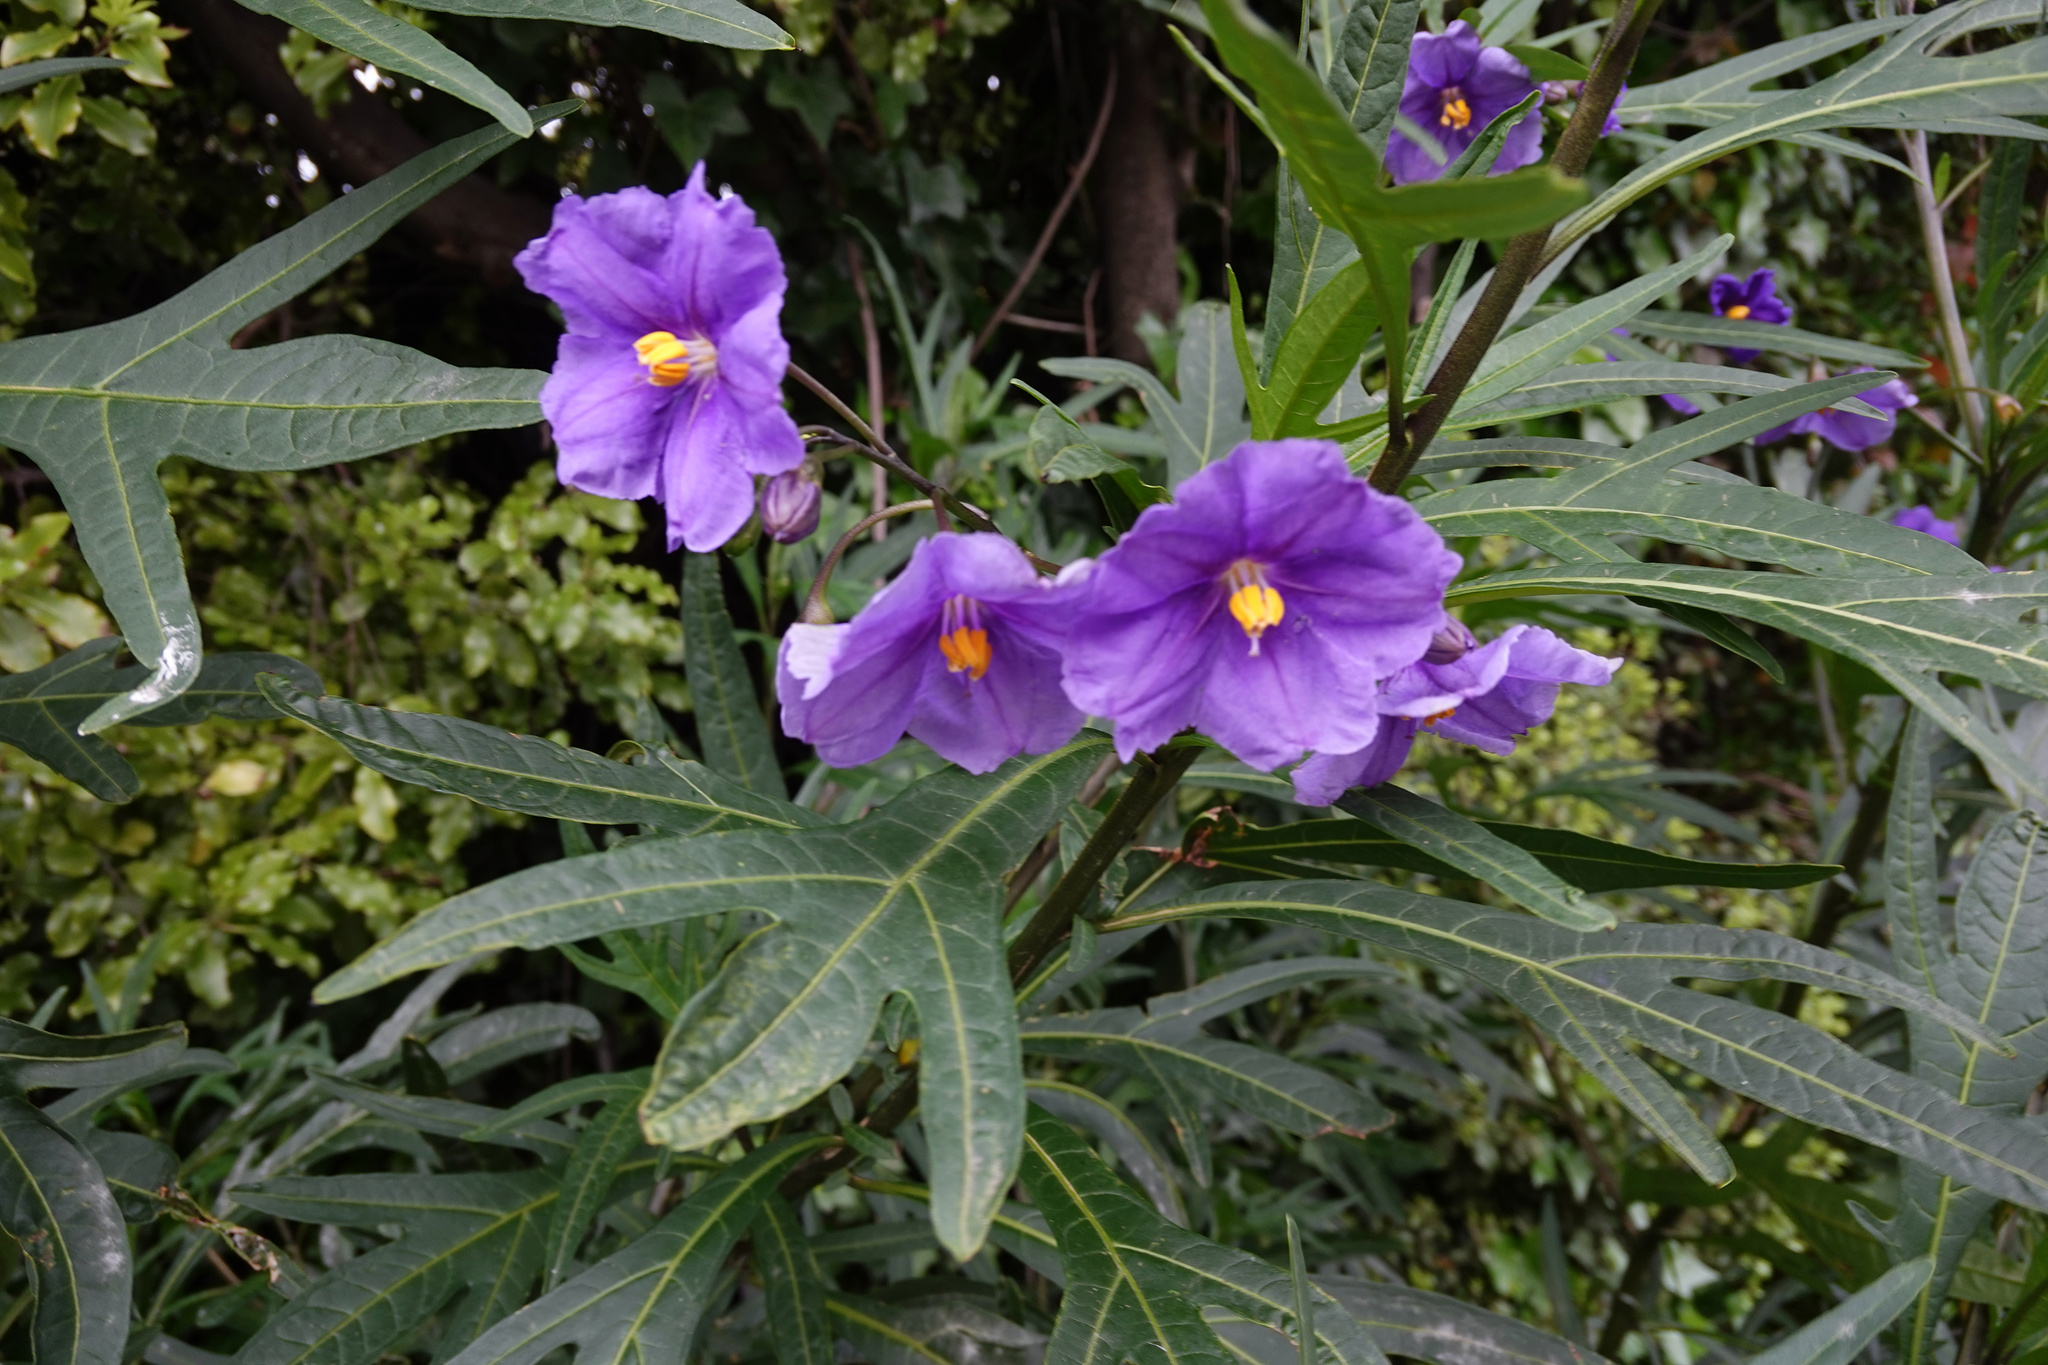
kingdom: Plantae
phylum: Tracheophyta
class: Magnoliopsida
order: Solanales
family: Solanaceae
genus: Solanum
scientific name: Solanum laciniatum
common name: Kangaroo-apple
